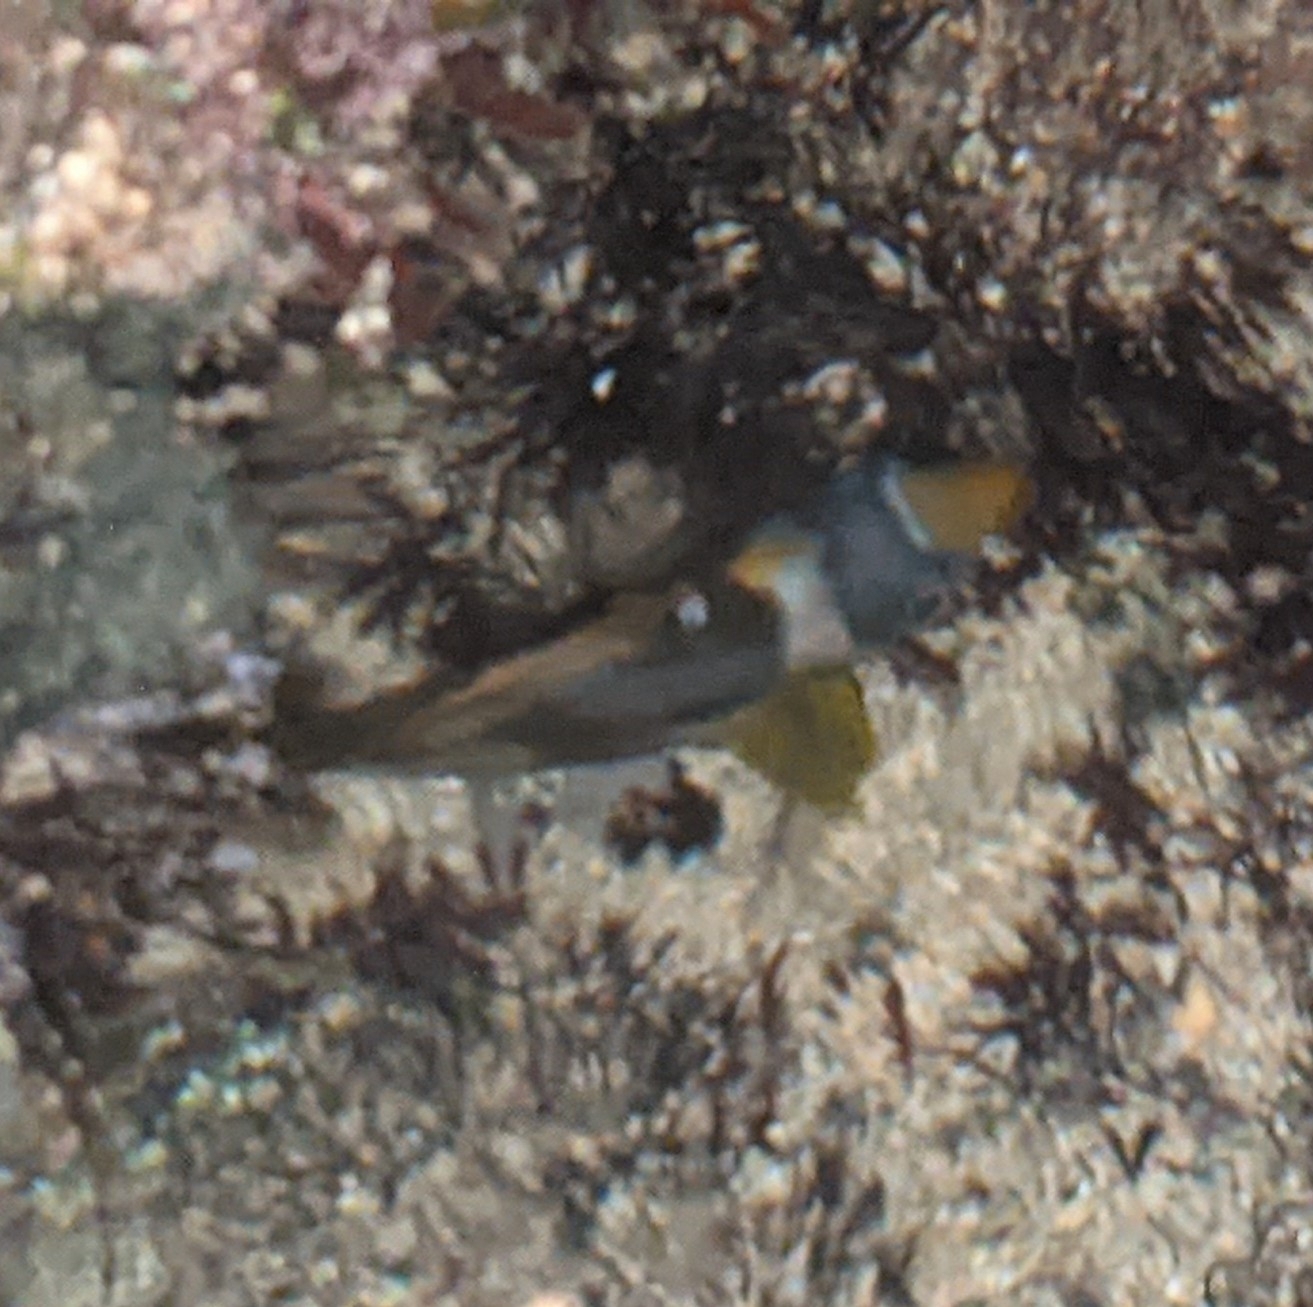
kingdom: Animalia
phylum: Chordata
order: Perciformes
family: Chaetodontidae
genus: Chaetodon
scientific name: Chaetodon lunula
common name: Raccoon butterflyfish
